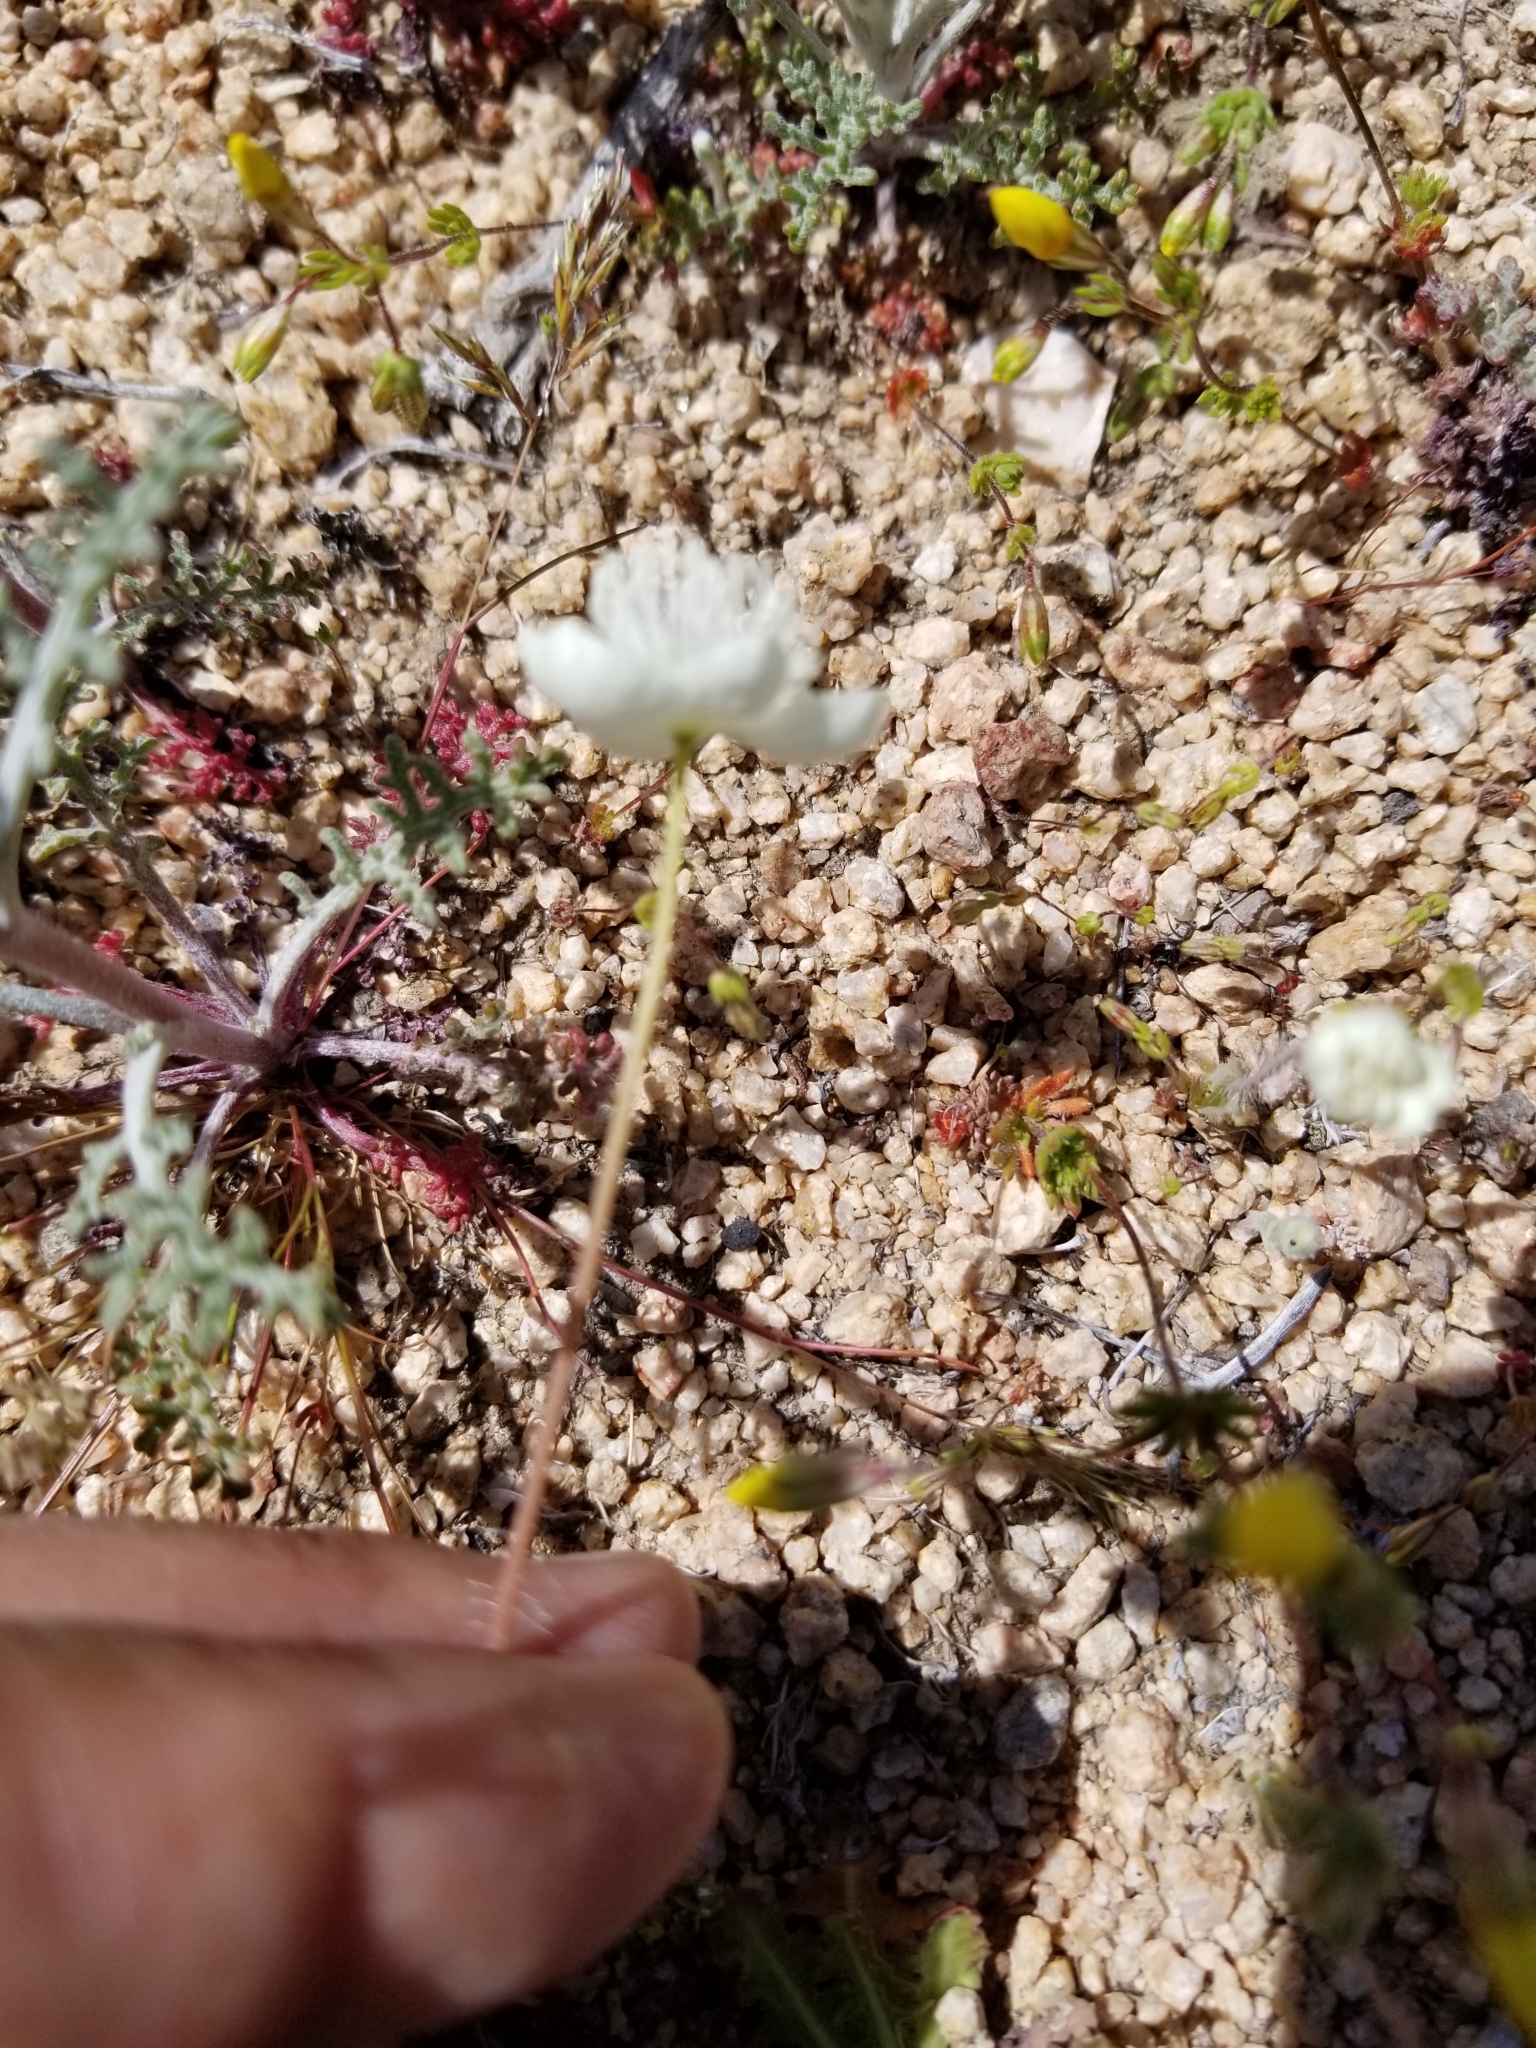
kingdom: Plantae
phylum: Tracheophyta
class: Magnoliopsida
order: Ranunculales
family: Papaveraceae
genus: Platystemon
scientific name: Platystemon californicus
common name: Cream-cups
